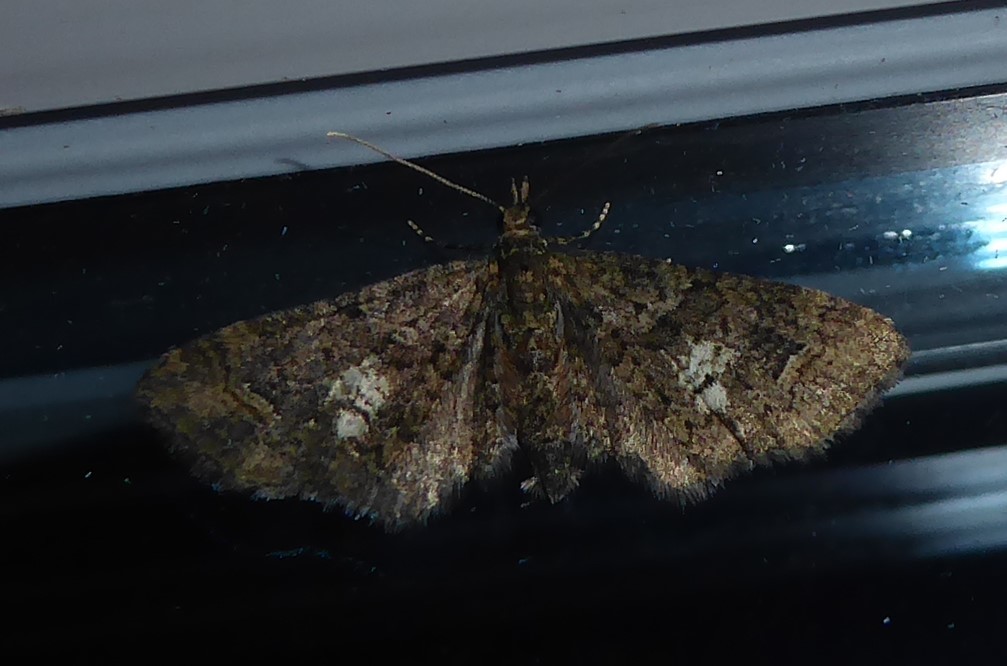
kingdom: Animalia
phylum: Arthropoda
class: Insecta
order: Lepidoptera
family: Geometridae
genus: Pasiphilodes
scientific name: Pasiphilodes testulata
